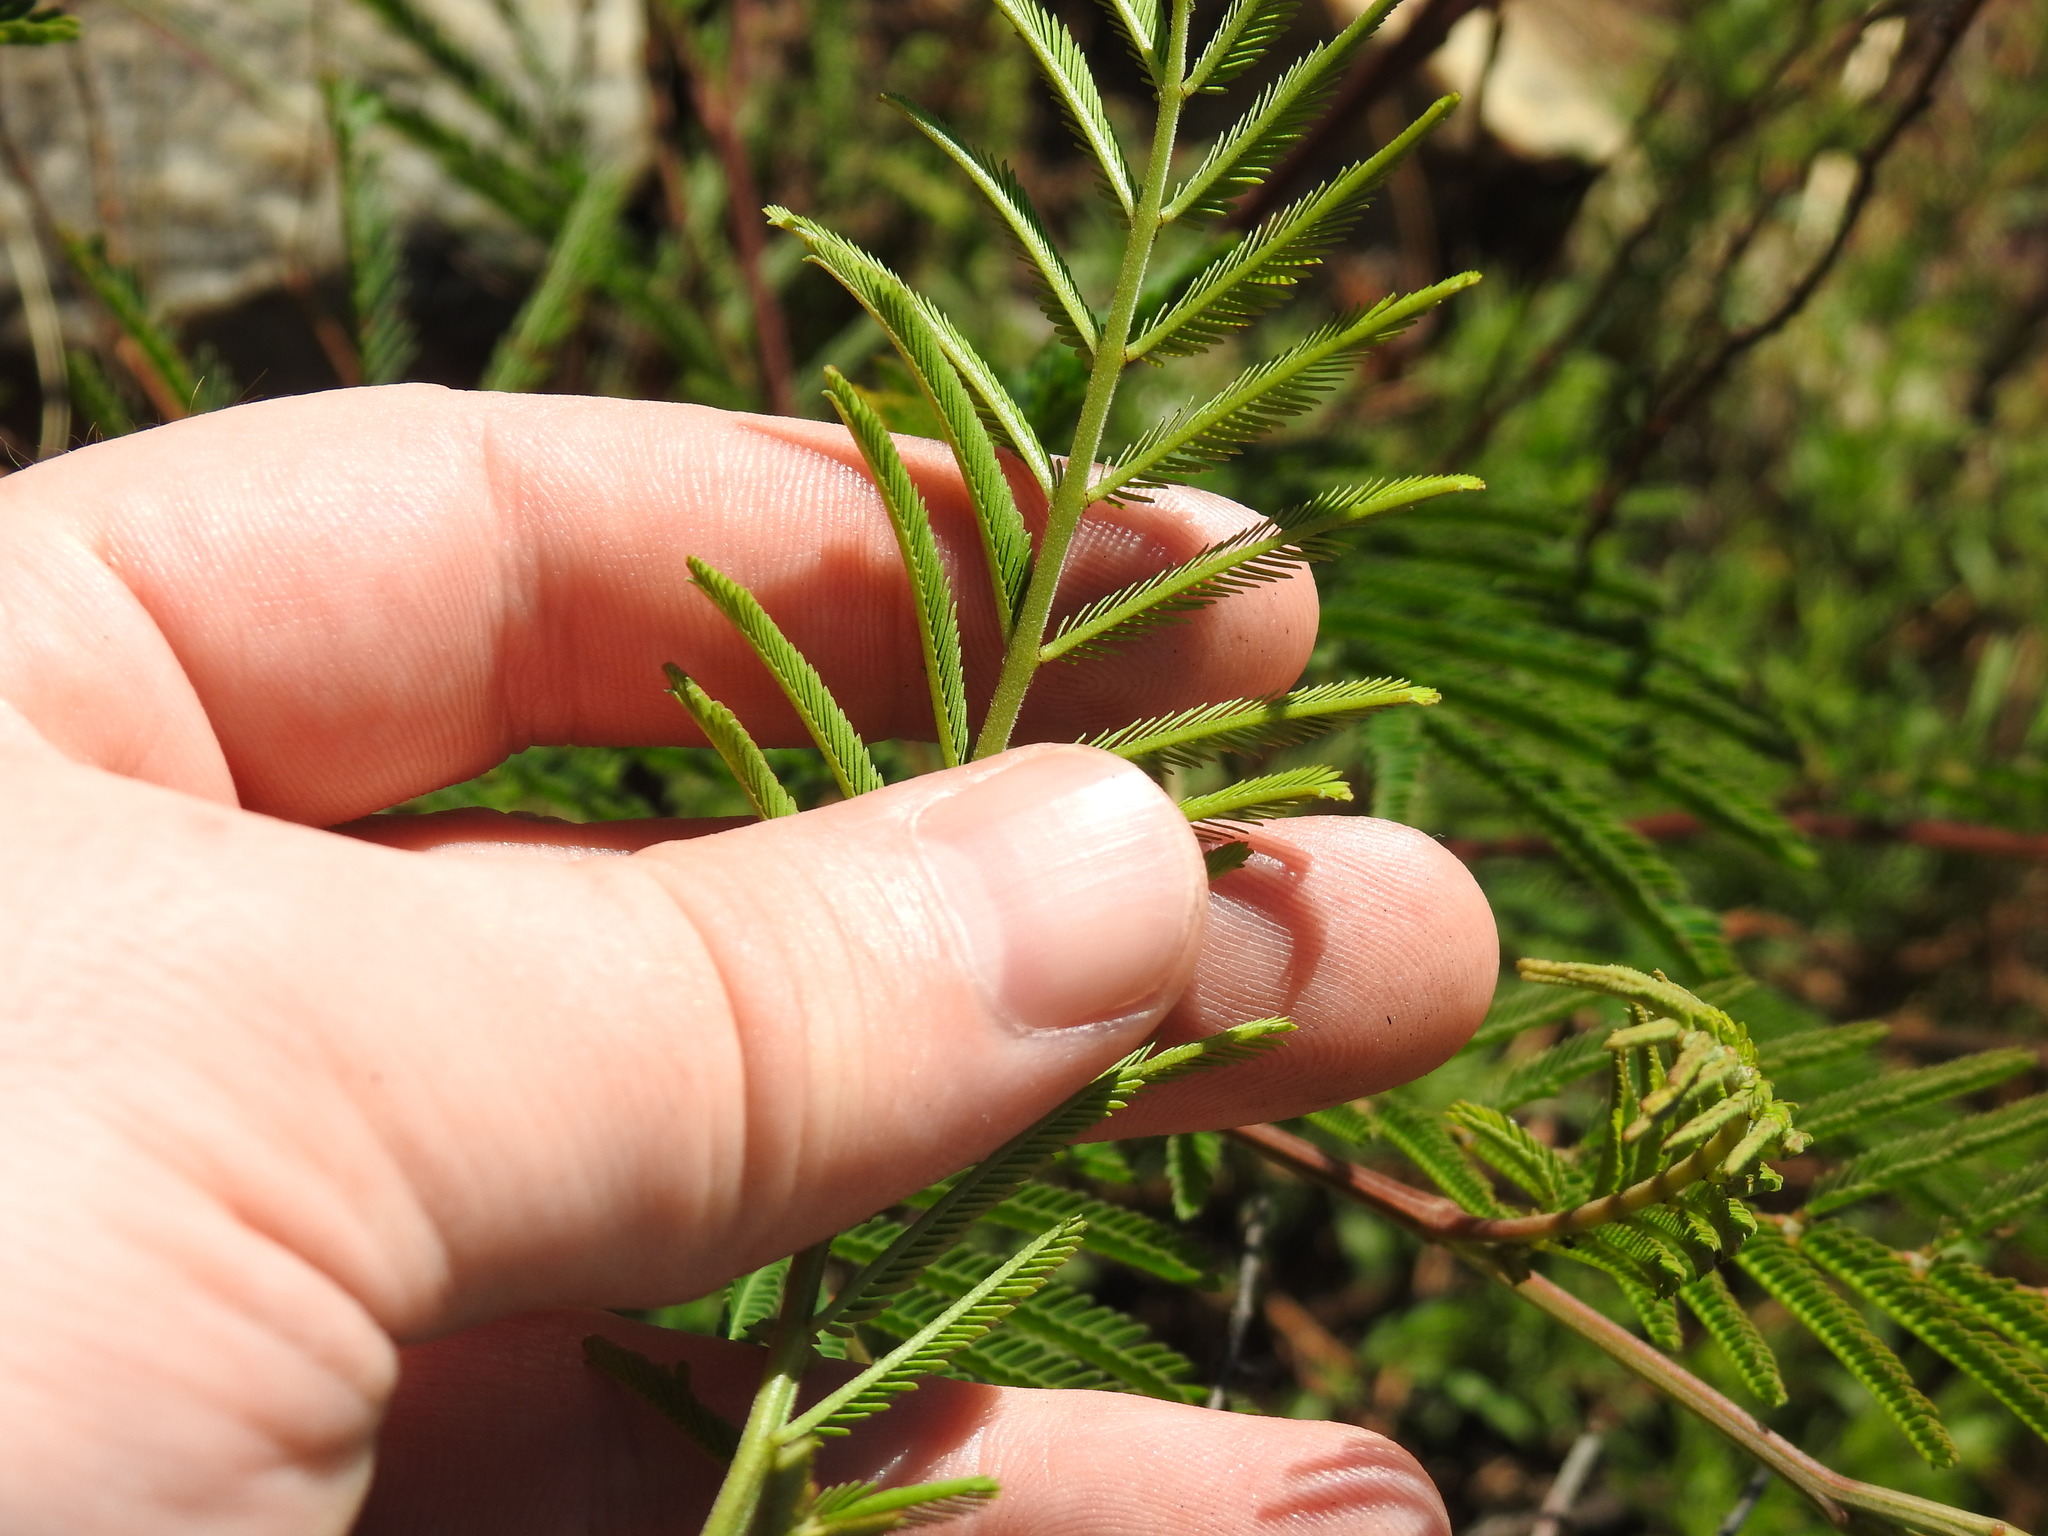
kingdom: Plantae
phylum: Tracheophyta
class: Magnoliopsida
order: Fabales
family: Fabaceae
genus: Acacia
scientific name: Acacia mearnsii
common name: Black wattle
